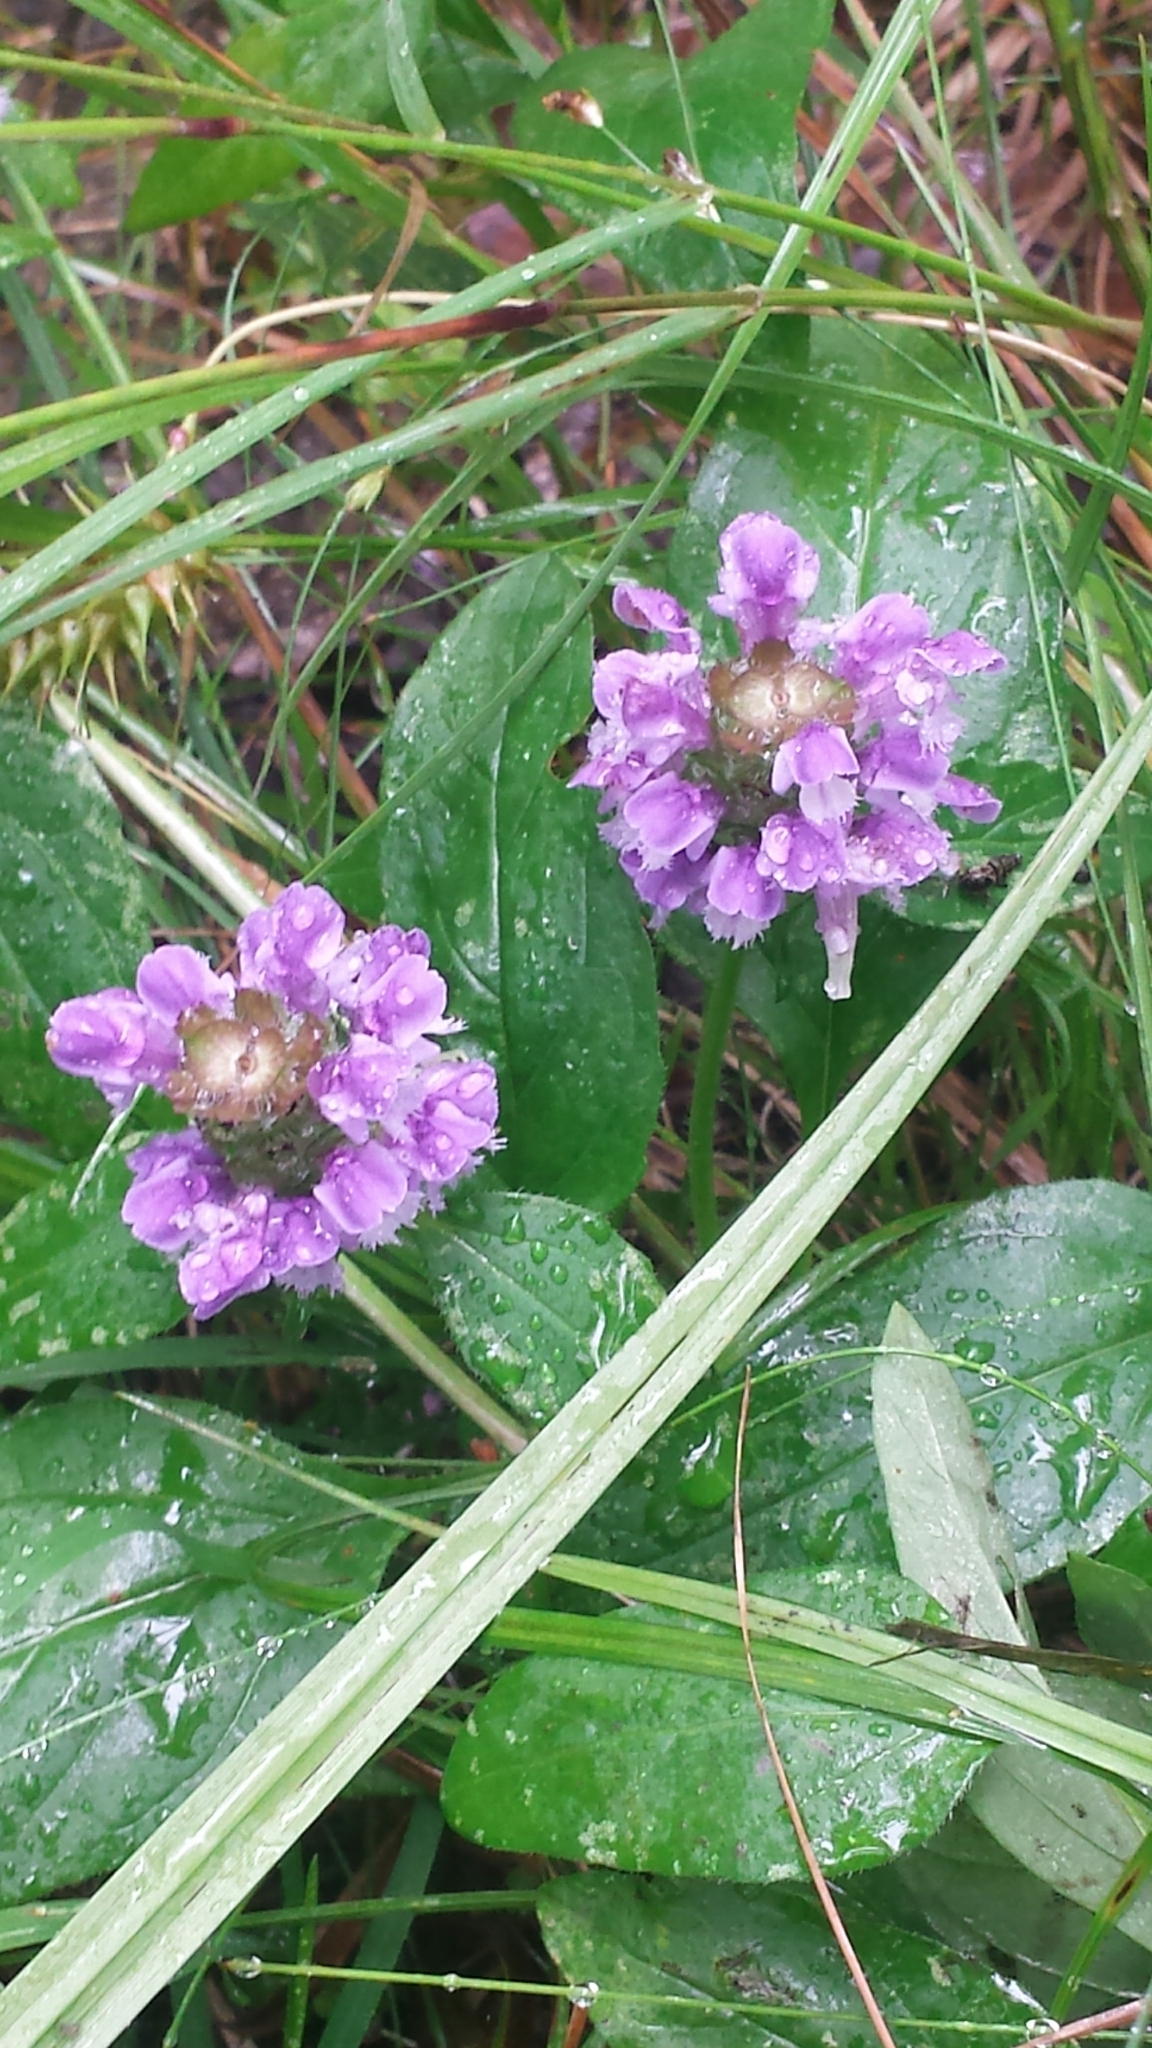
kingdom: Plantae
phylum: Tracheophyta
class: Magnoliopsida
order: Lamiales
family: Lamiaceae
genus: Prunella
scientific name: Prunella vulgaris
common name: Heal-all
